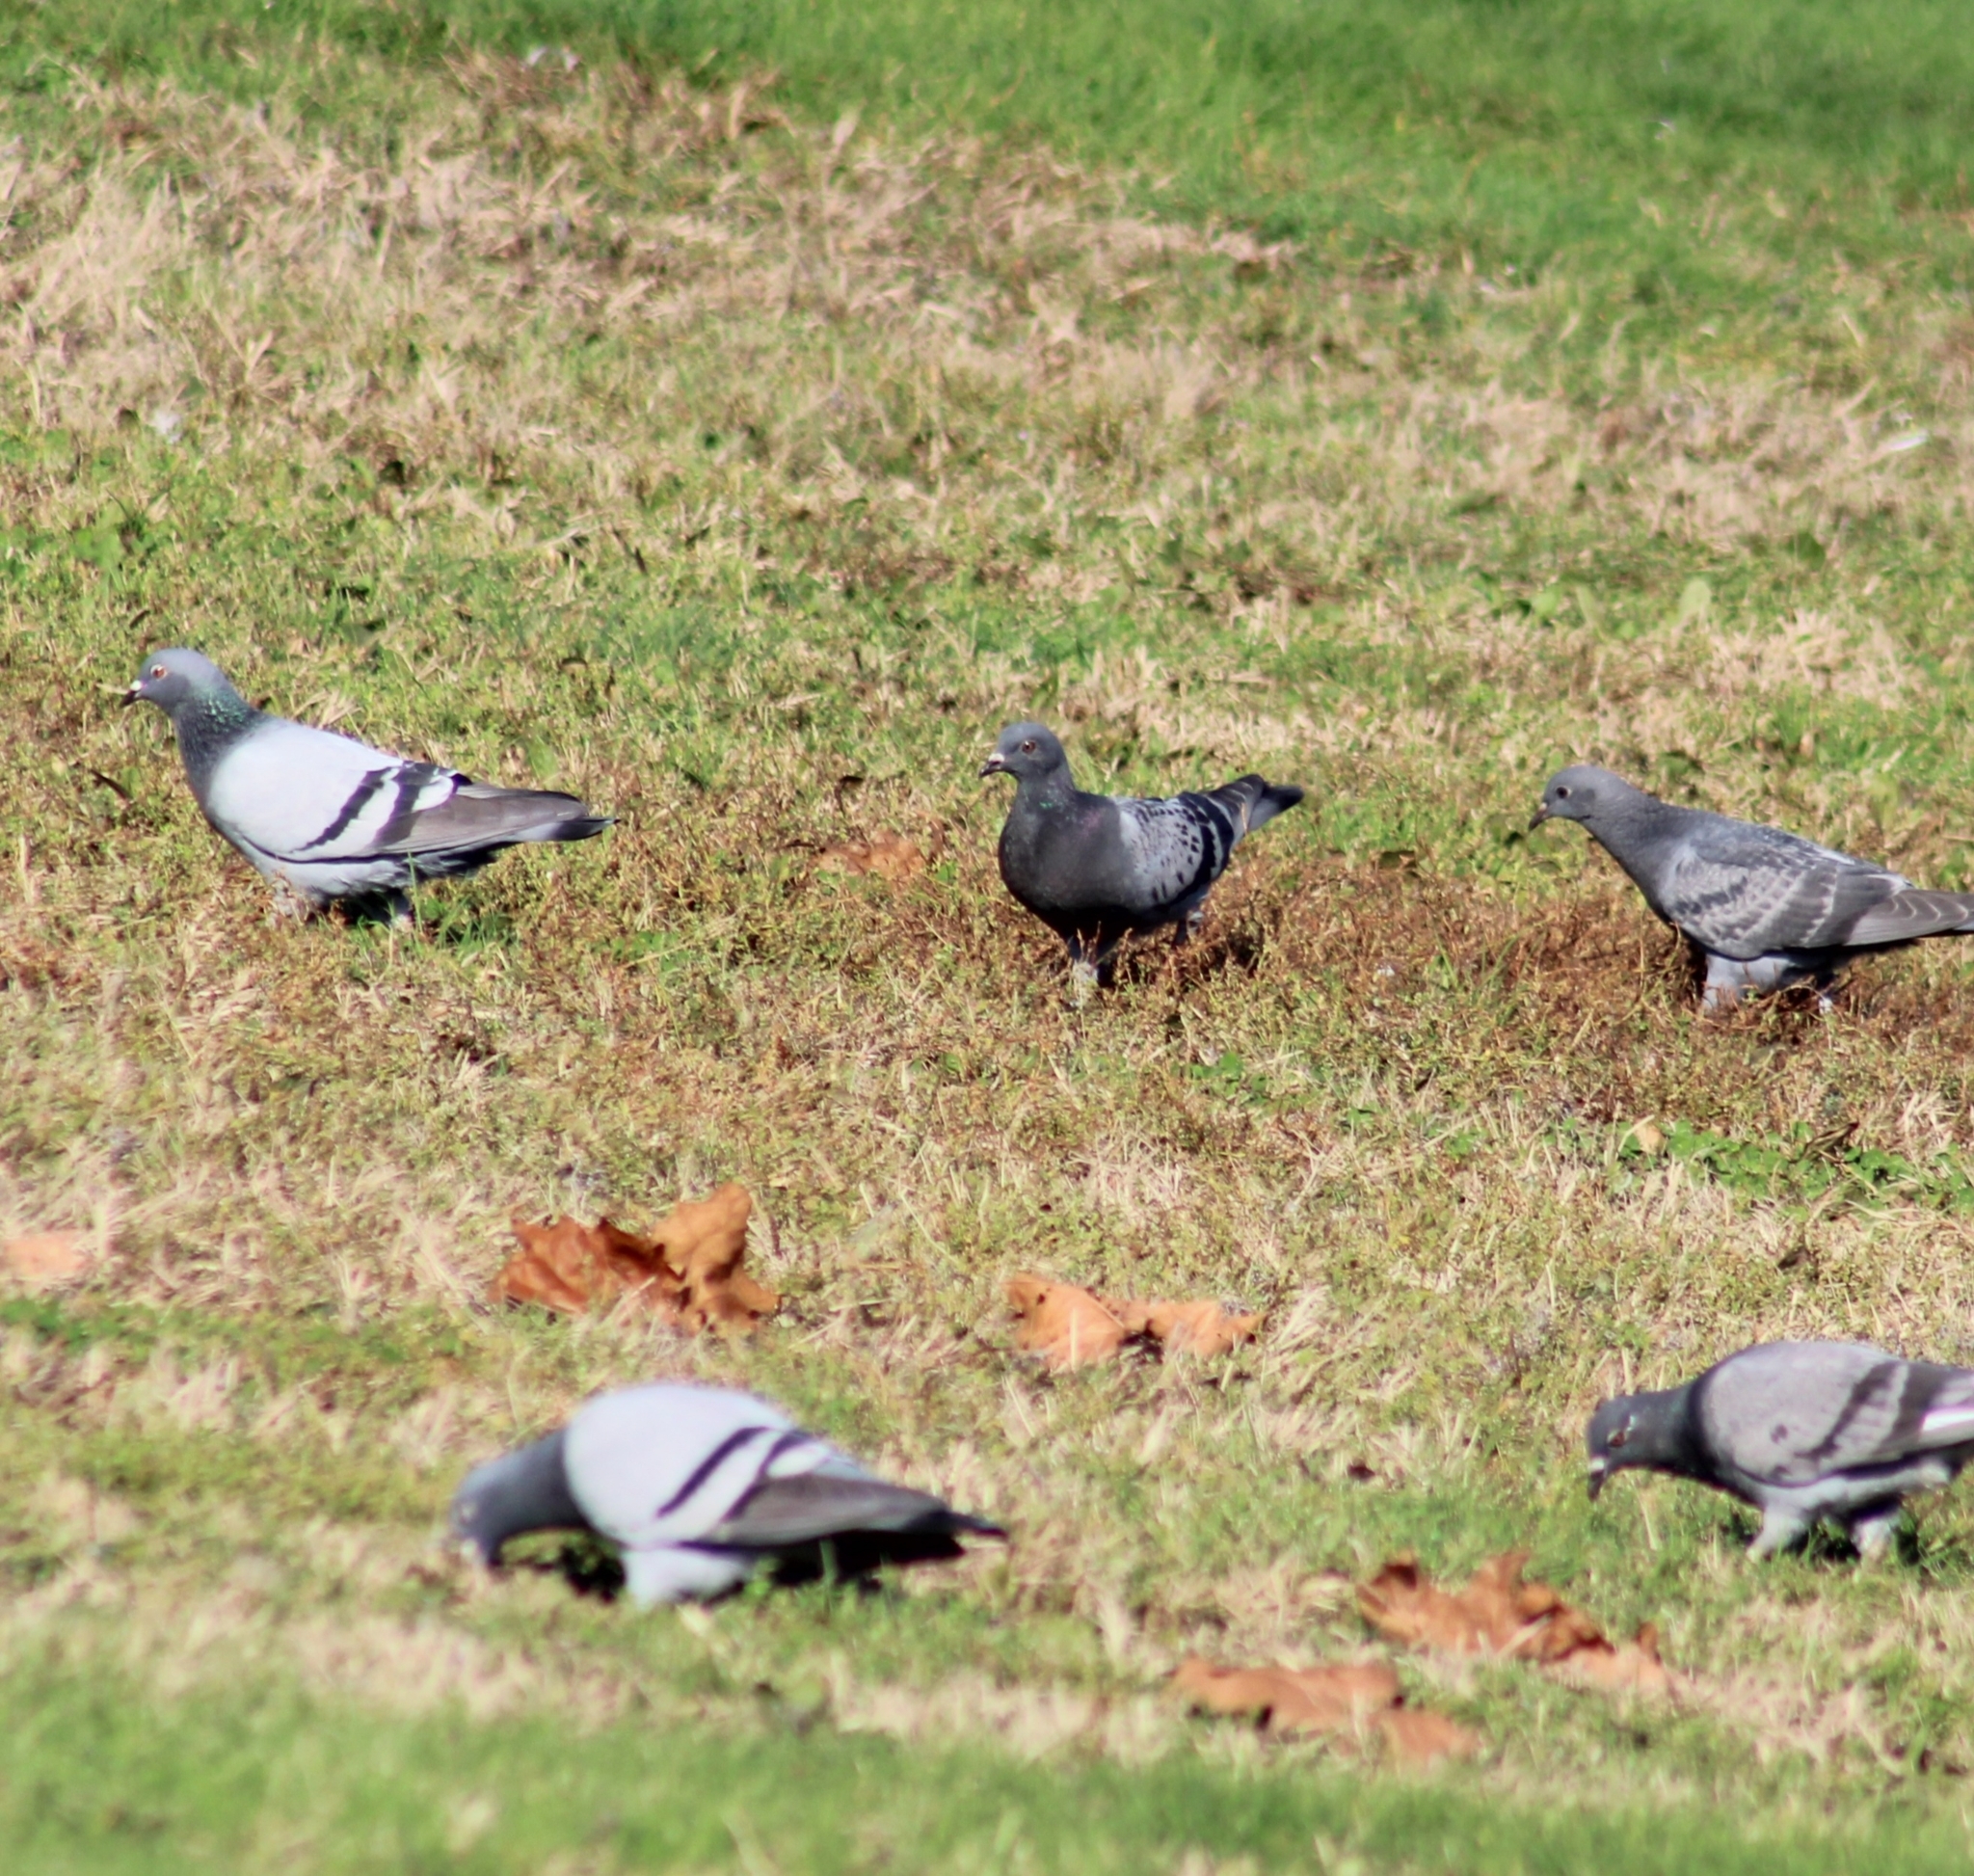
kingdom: Animalia
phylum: Chordata
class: Aves
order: Columbiformes
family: Columbidae
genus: Columba
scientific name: Columba livia
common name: Rock pigeon
